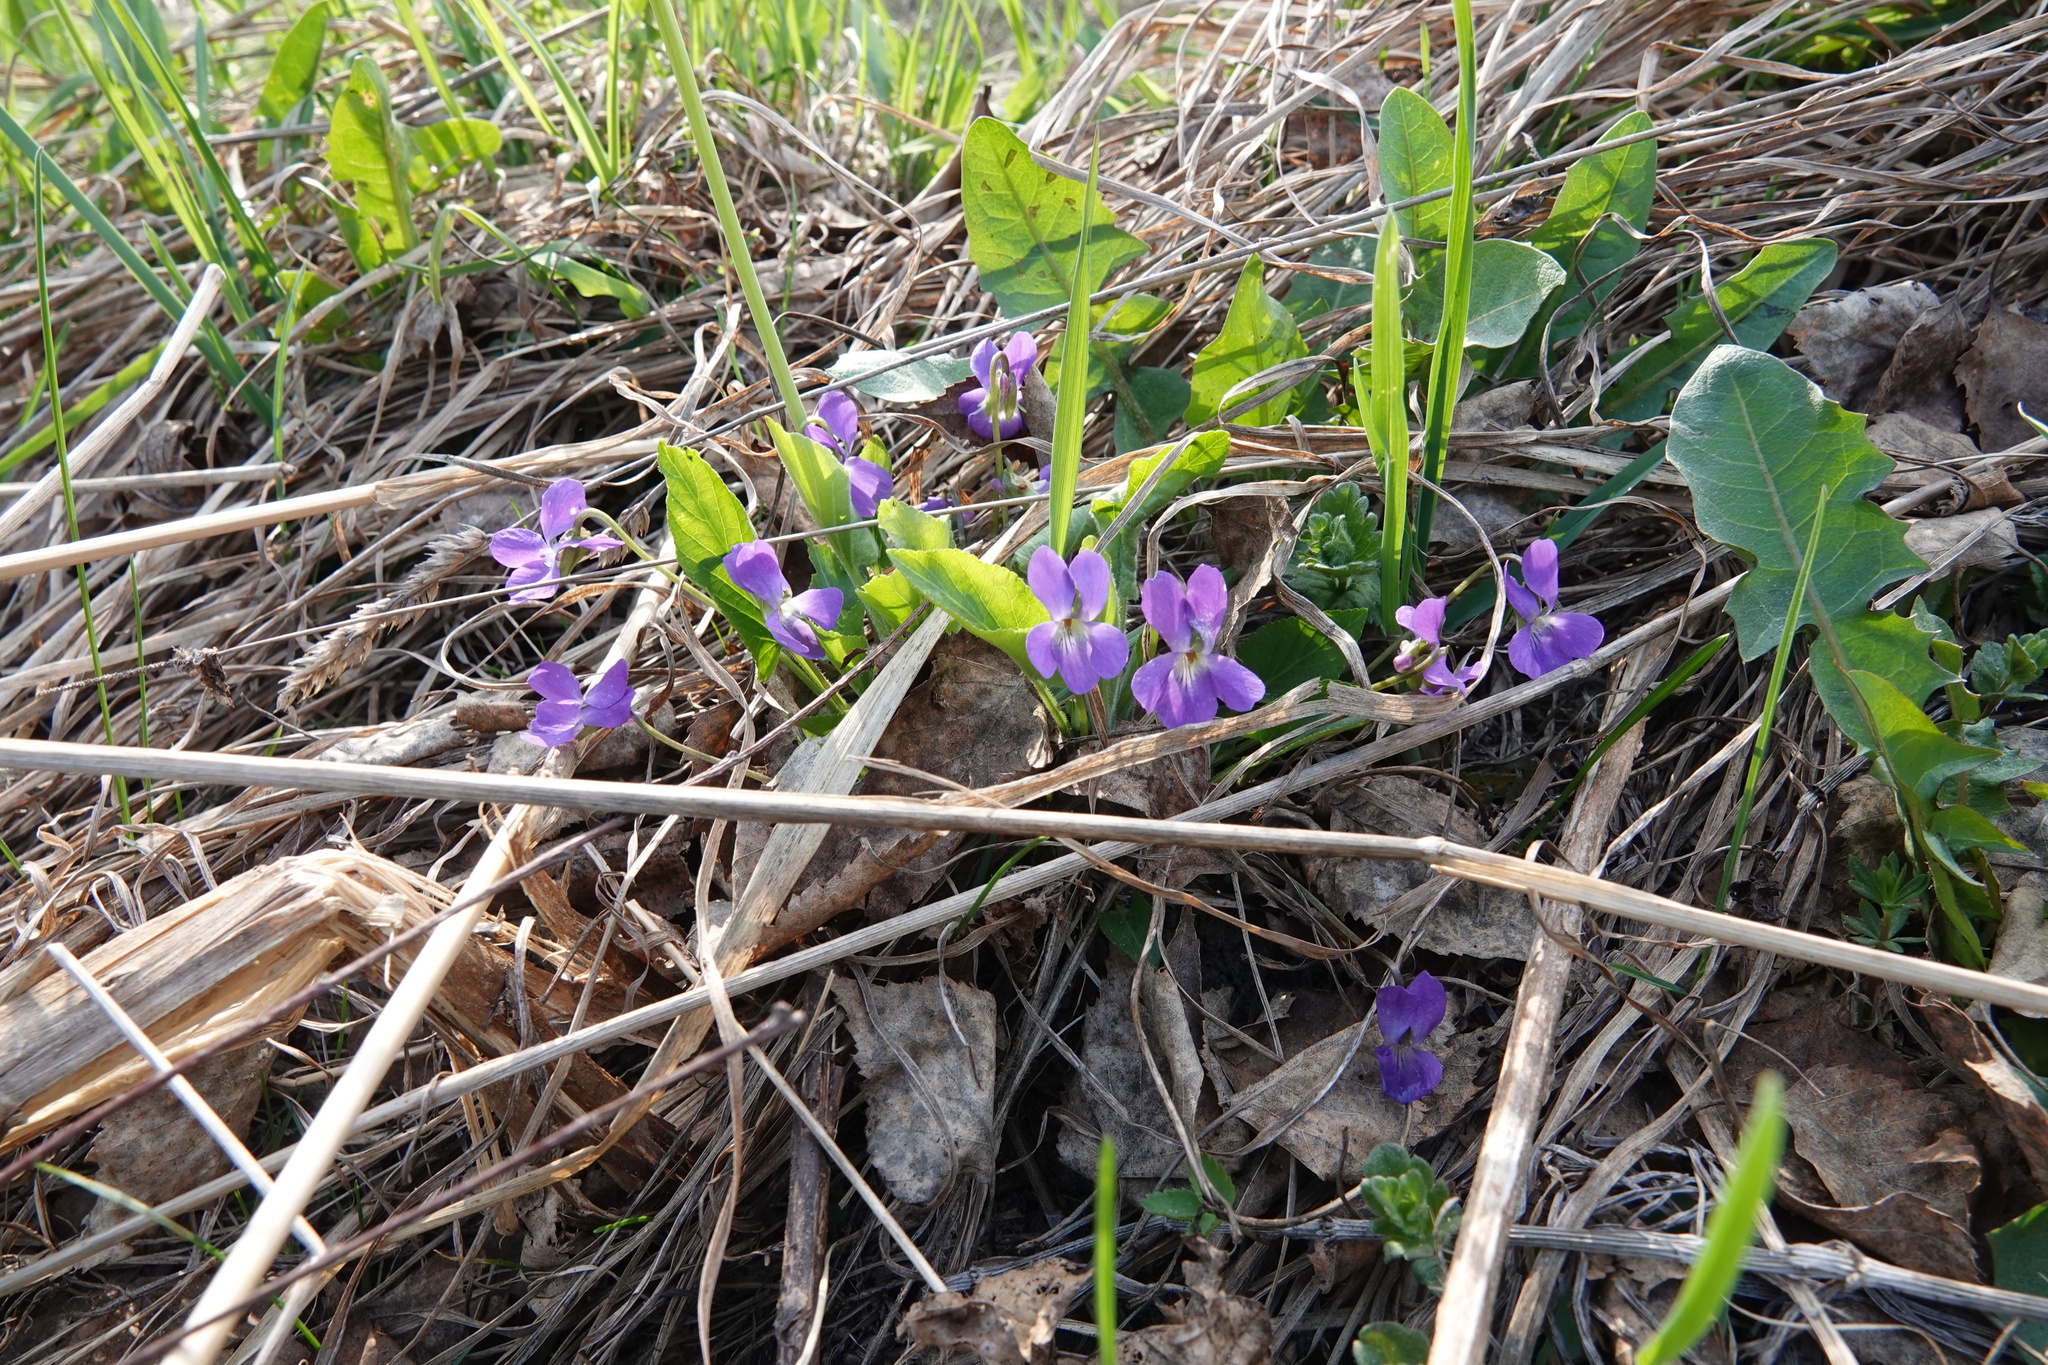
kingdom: Plantae
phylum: Tracheophyta
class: Magnoliopsida
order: Malpighiales
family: Violaceae
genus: Viola
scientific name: Viola hirta
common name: Hairy violet
